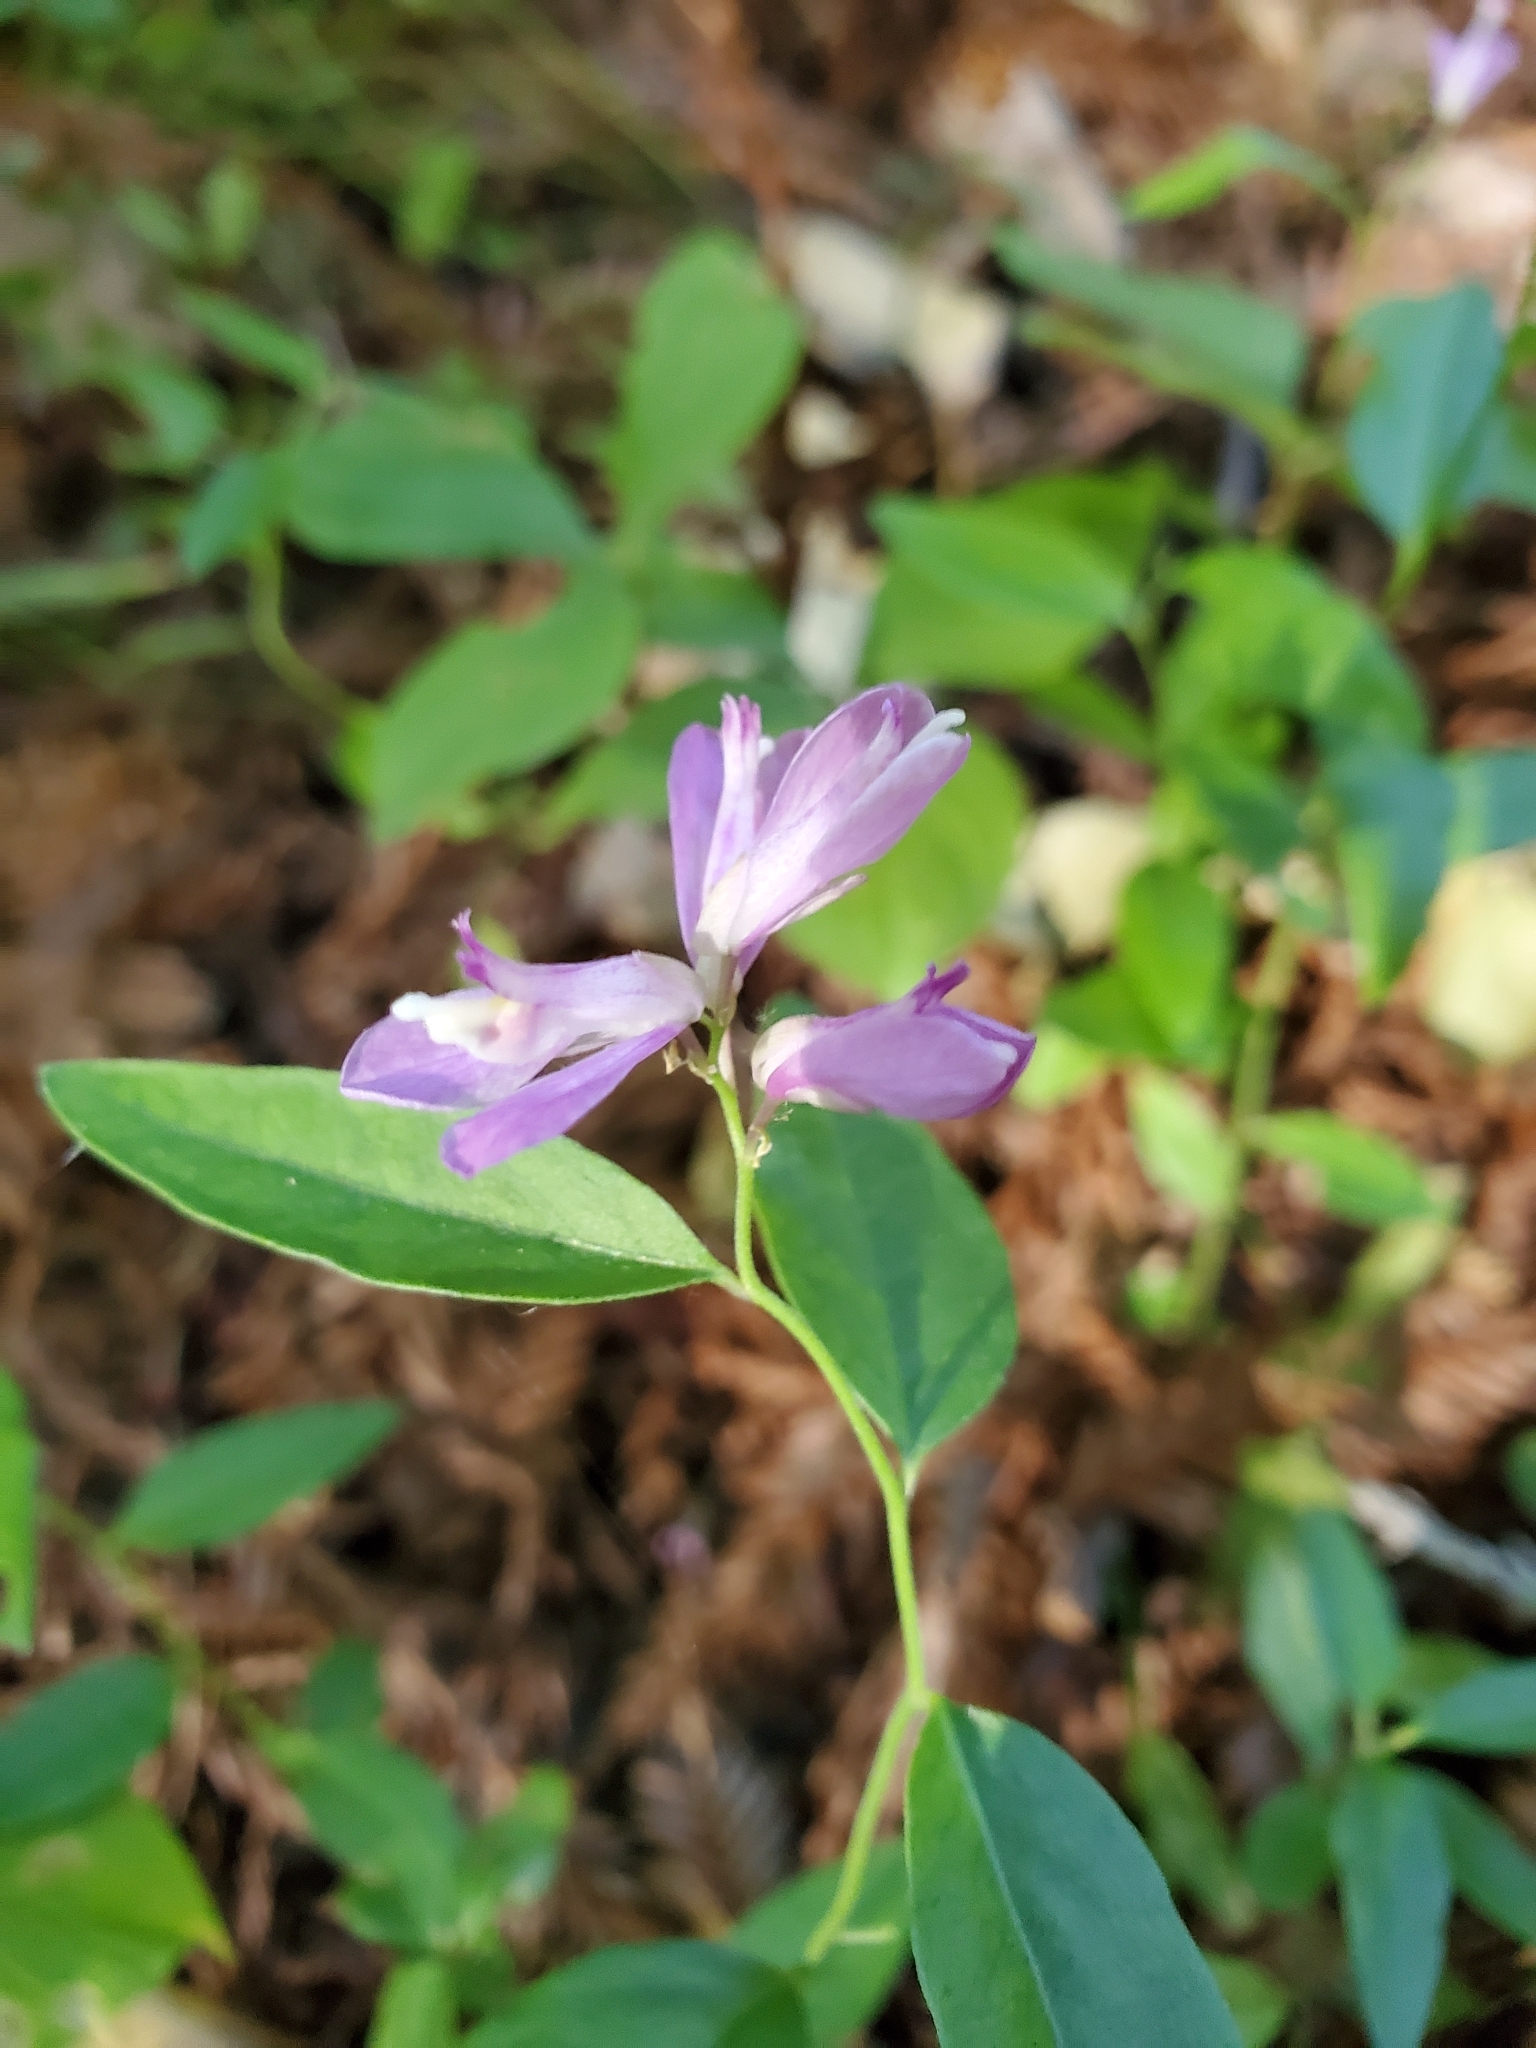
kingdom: Plantae
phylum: Tracheophyta
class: Magnoliopsida
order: Fabales
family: Polygalaceae
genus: Rhinotropis
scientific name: Rhinotropis californica
